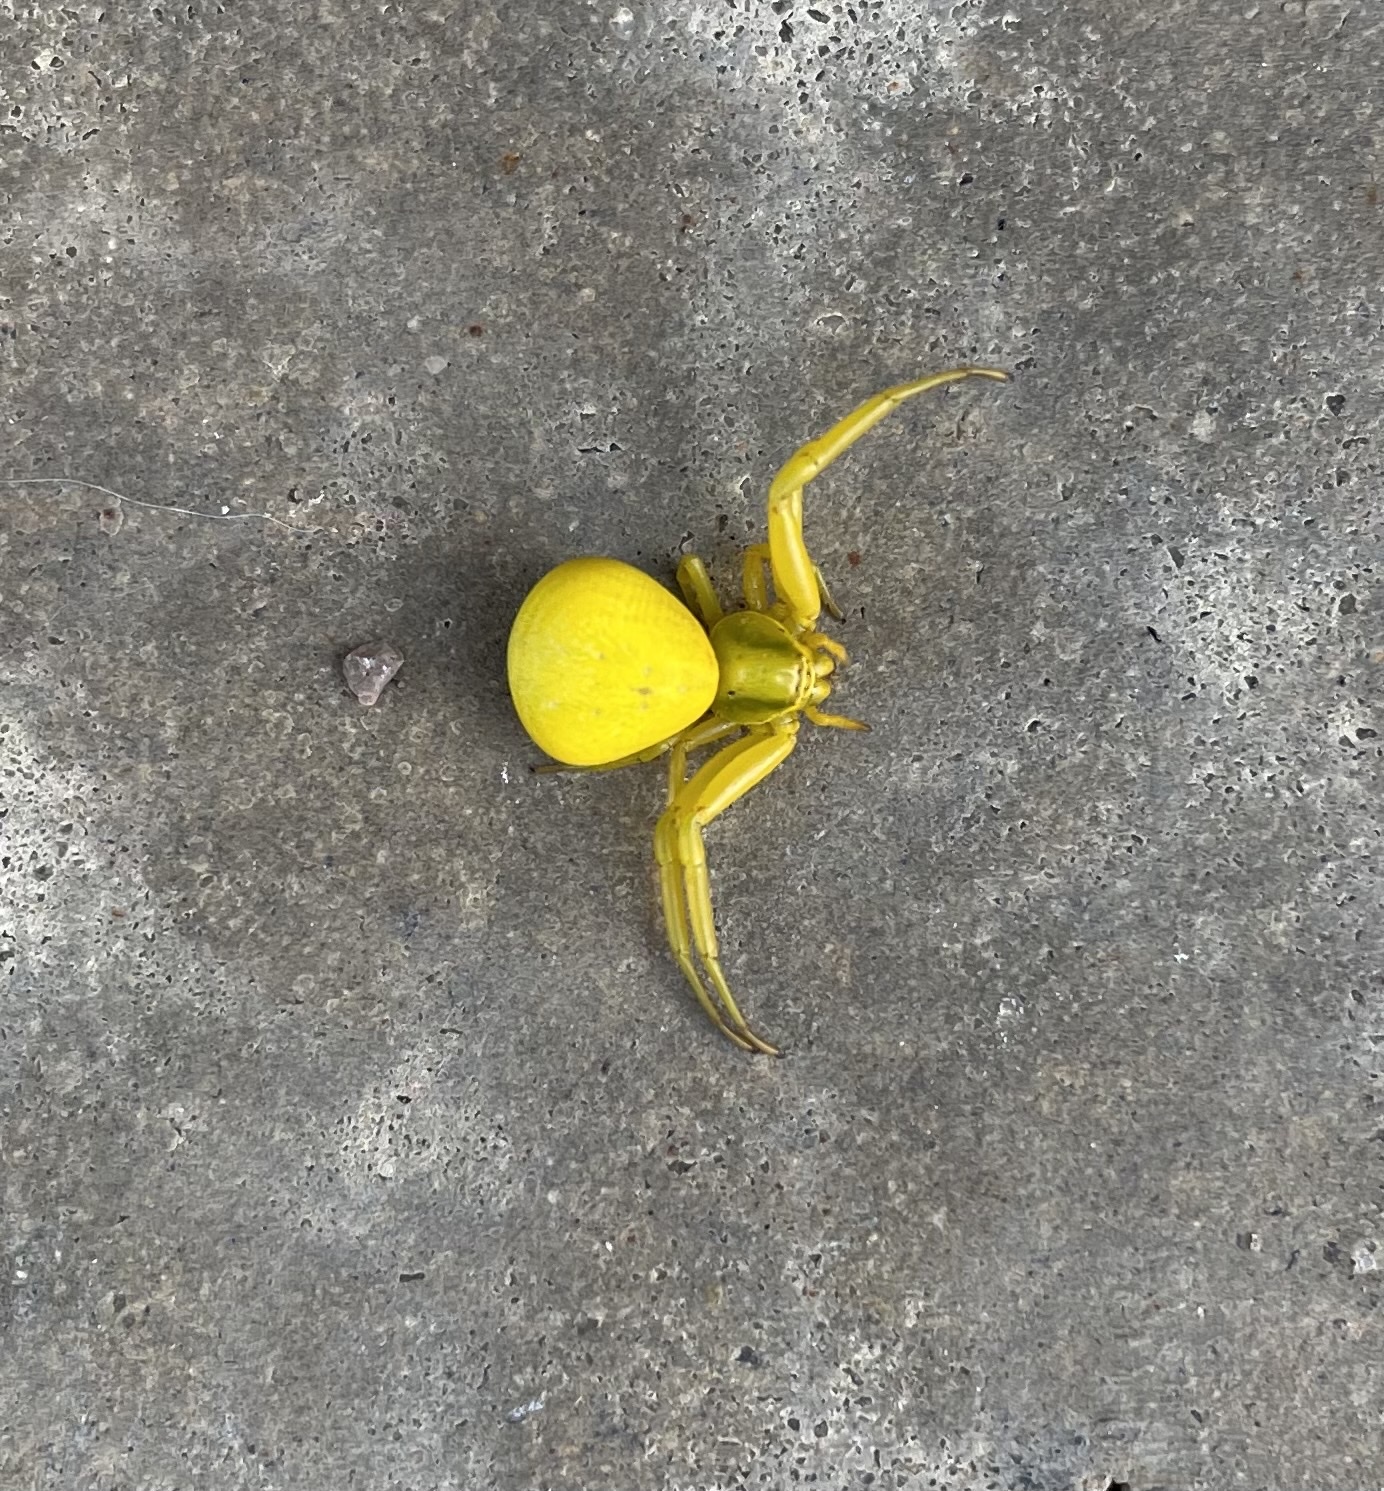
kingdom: Animalia
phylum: Arthropoda
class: Arachnida
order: Araneae
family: Thomisidae
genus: Misumenoides
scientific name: Misumenoides formosipes
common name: White-banded crab spider
